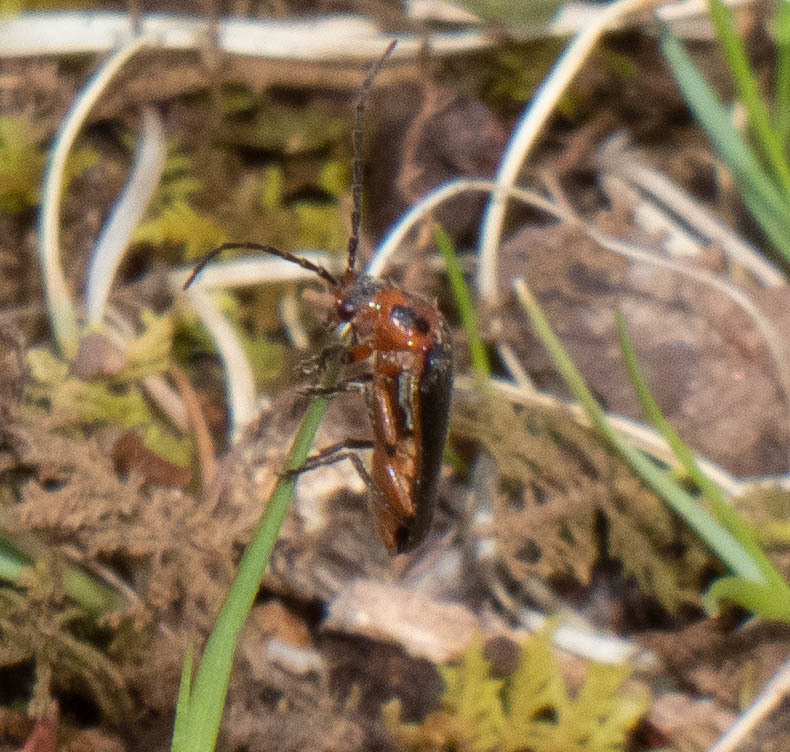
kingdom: Animalia
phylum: Arthropoda
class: Insecta
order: Coleoptera
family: Cantharidae
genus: Atalantycha
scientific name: Atalantycha bilineata
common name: Two-lined leatherwing
